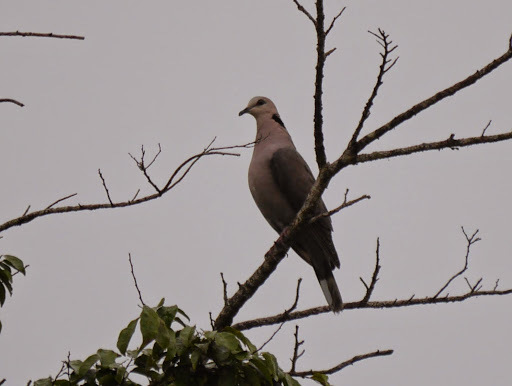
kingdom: Animalia
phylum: Chordata
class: Aves
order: Columbiformes
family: Columbidae
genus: Streptopelia
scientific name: Streptopelia semitorquata
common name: Red-eyed dove
